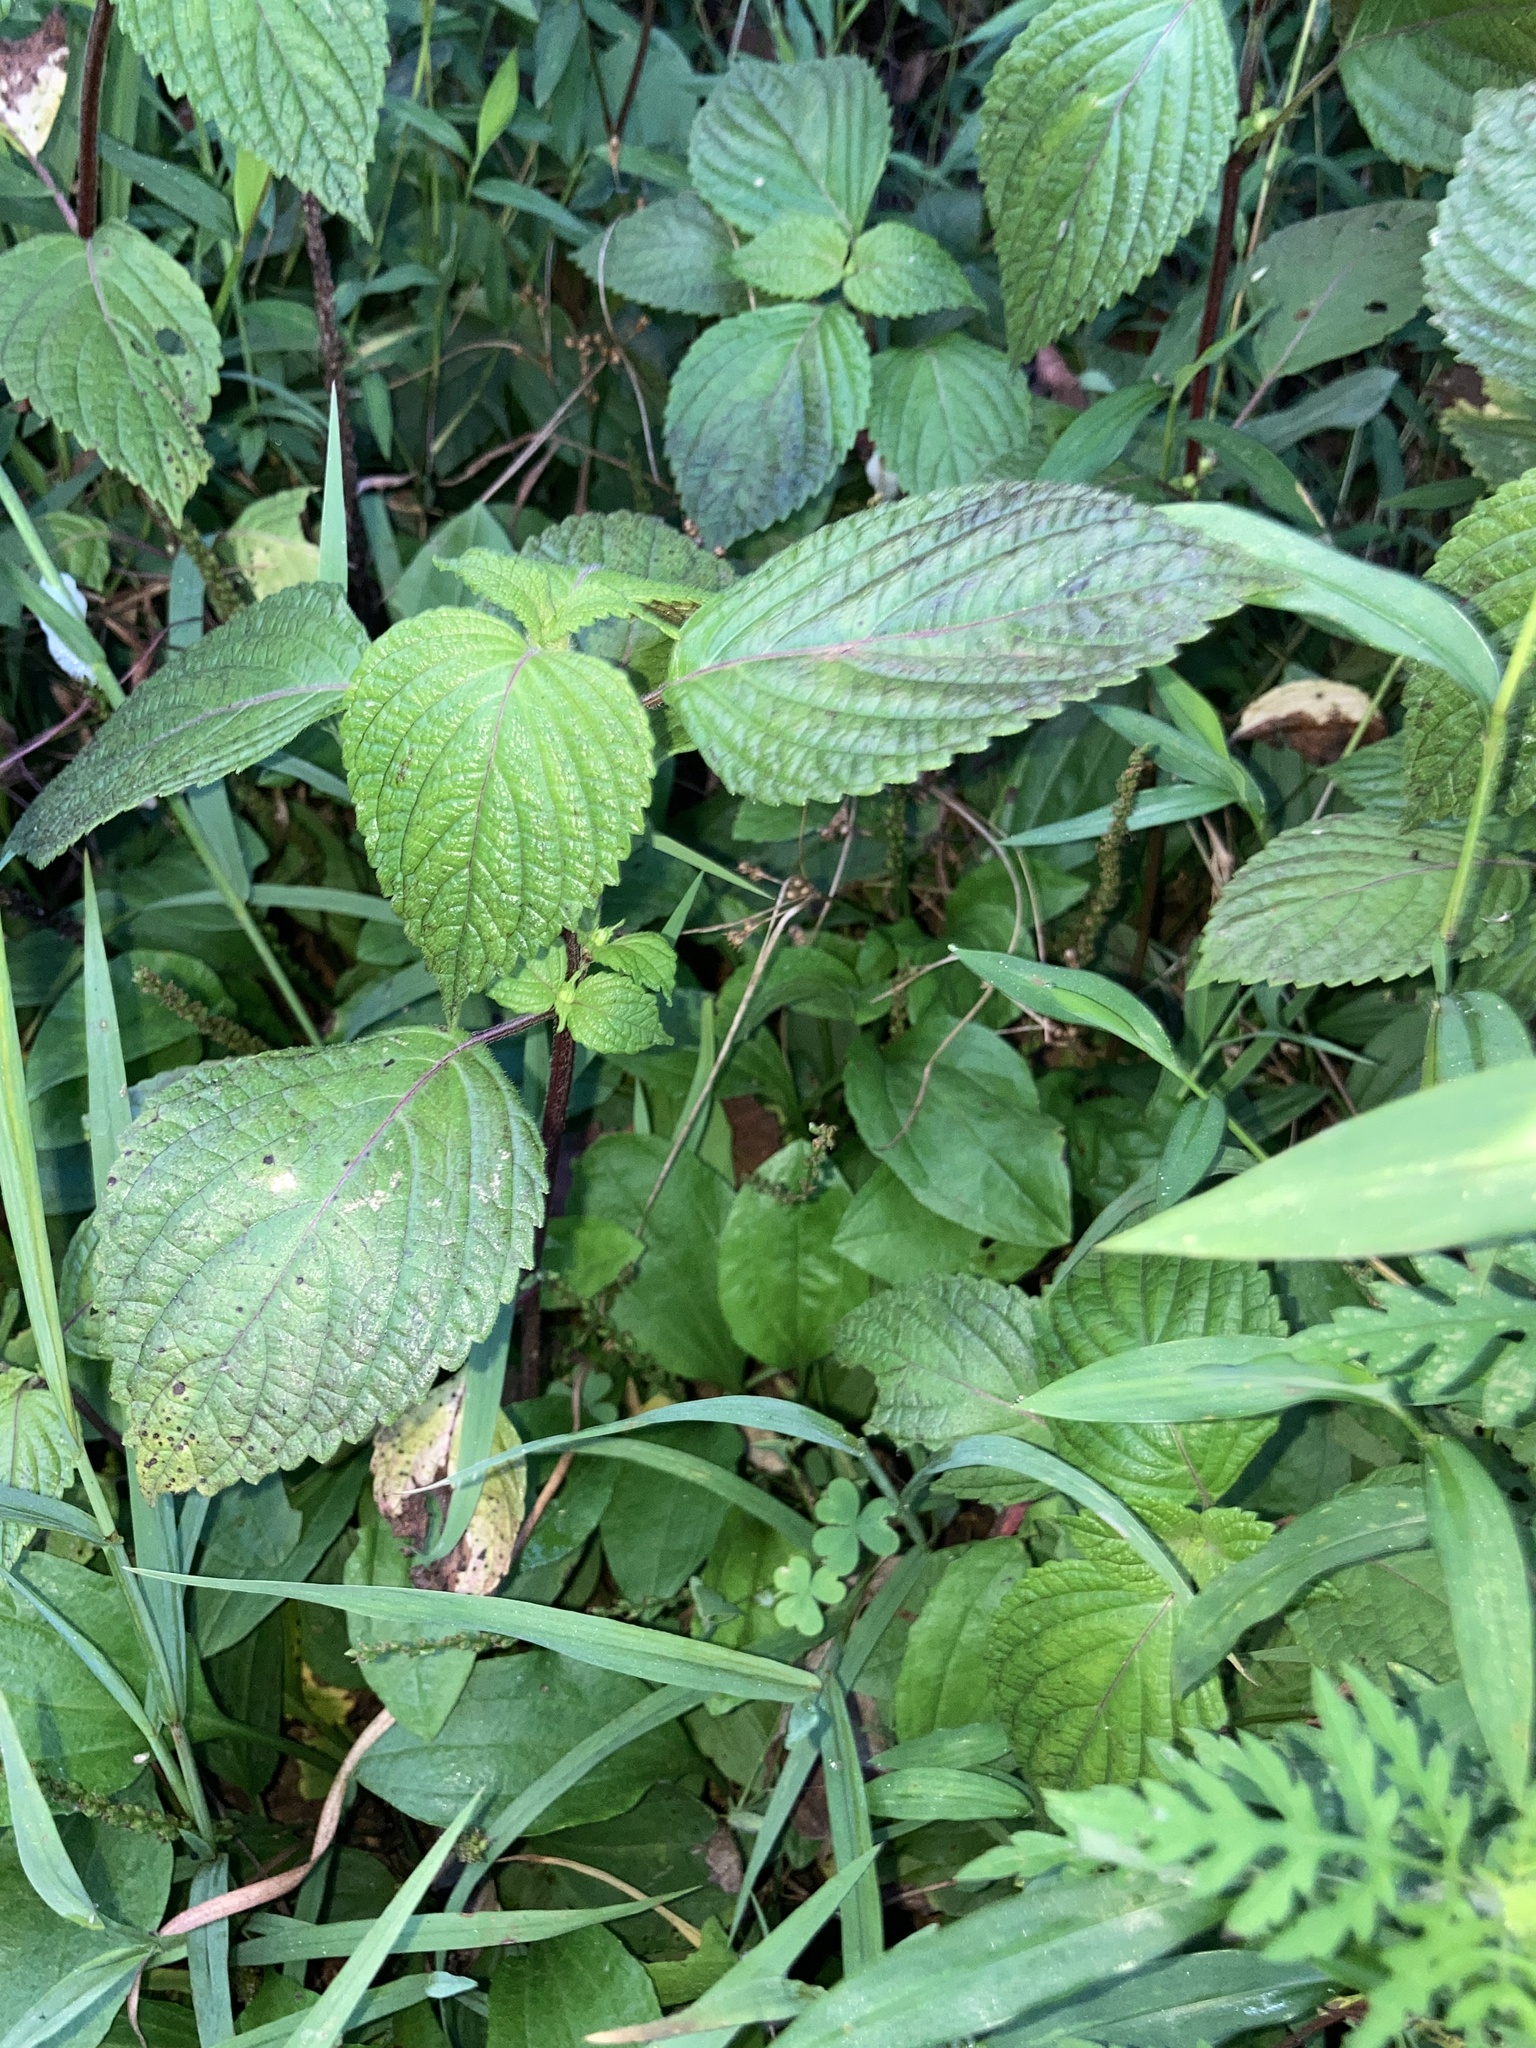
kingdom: Plantae
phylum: Tracheophyta
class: Magnoliopsida
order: Lamiales
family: Lamiaceae
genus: Perilla
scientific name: Perilla frutescens
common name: Perilla
